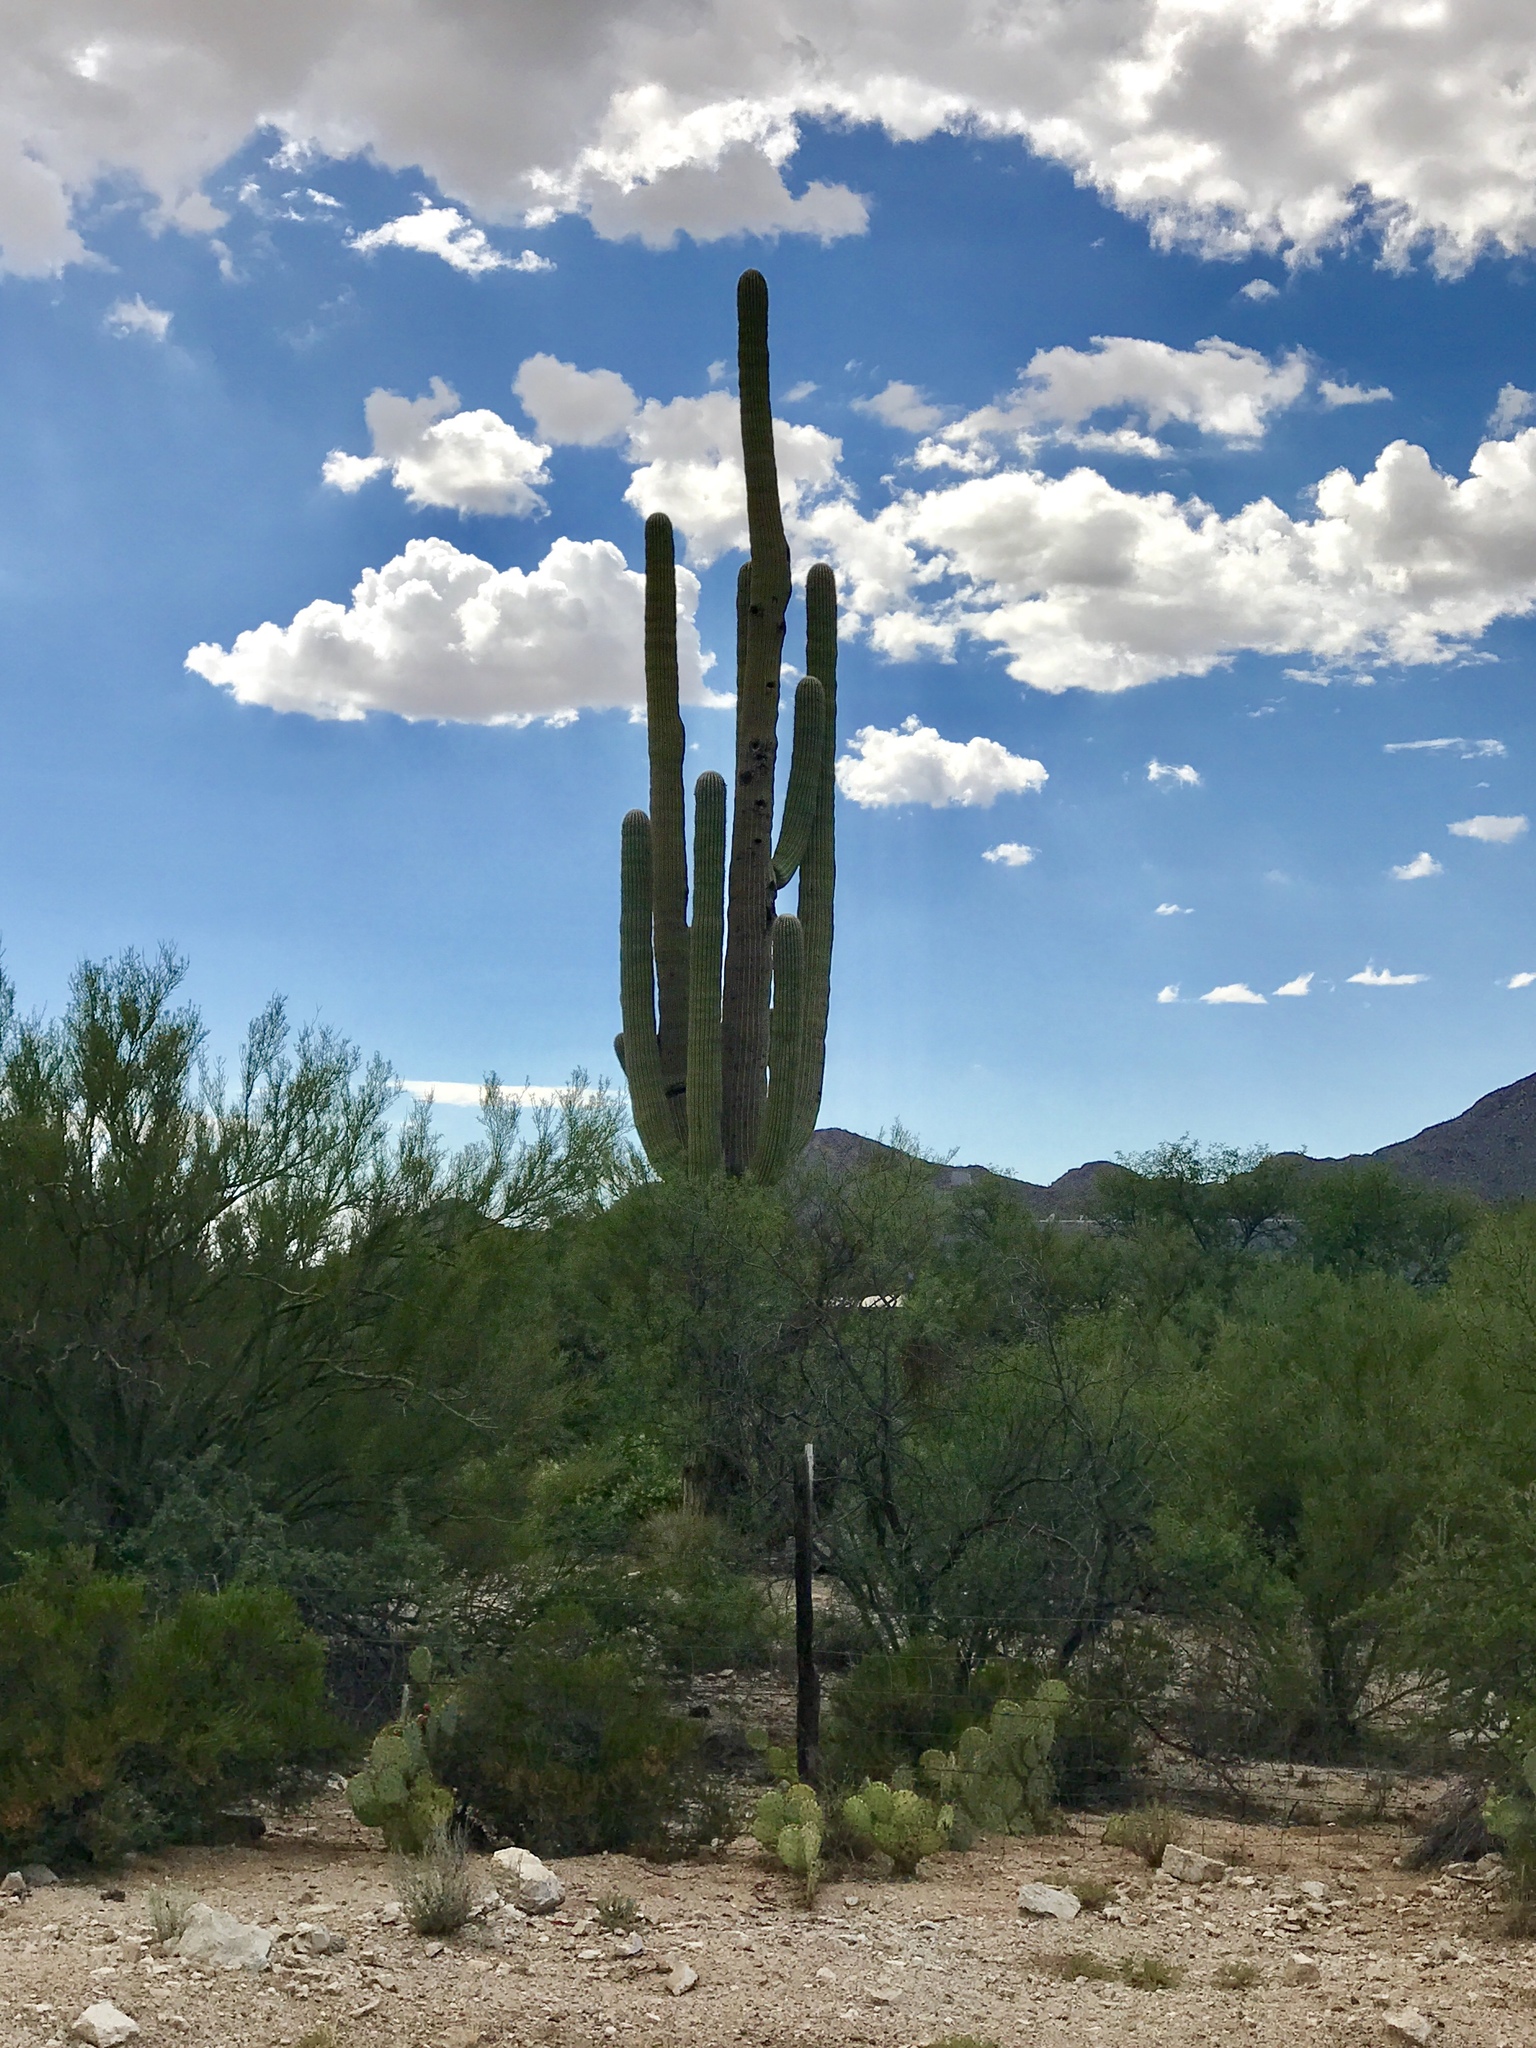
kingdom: Plantae
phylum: Tracheophyta
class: Magnoliopsida
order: Caryophyllales
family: Cactaceae
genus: Carnegiea
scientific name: Carnegiea gigantea
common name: Saguaro
